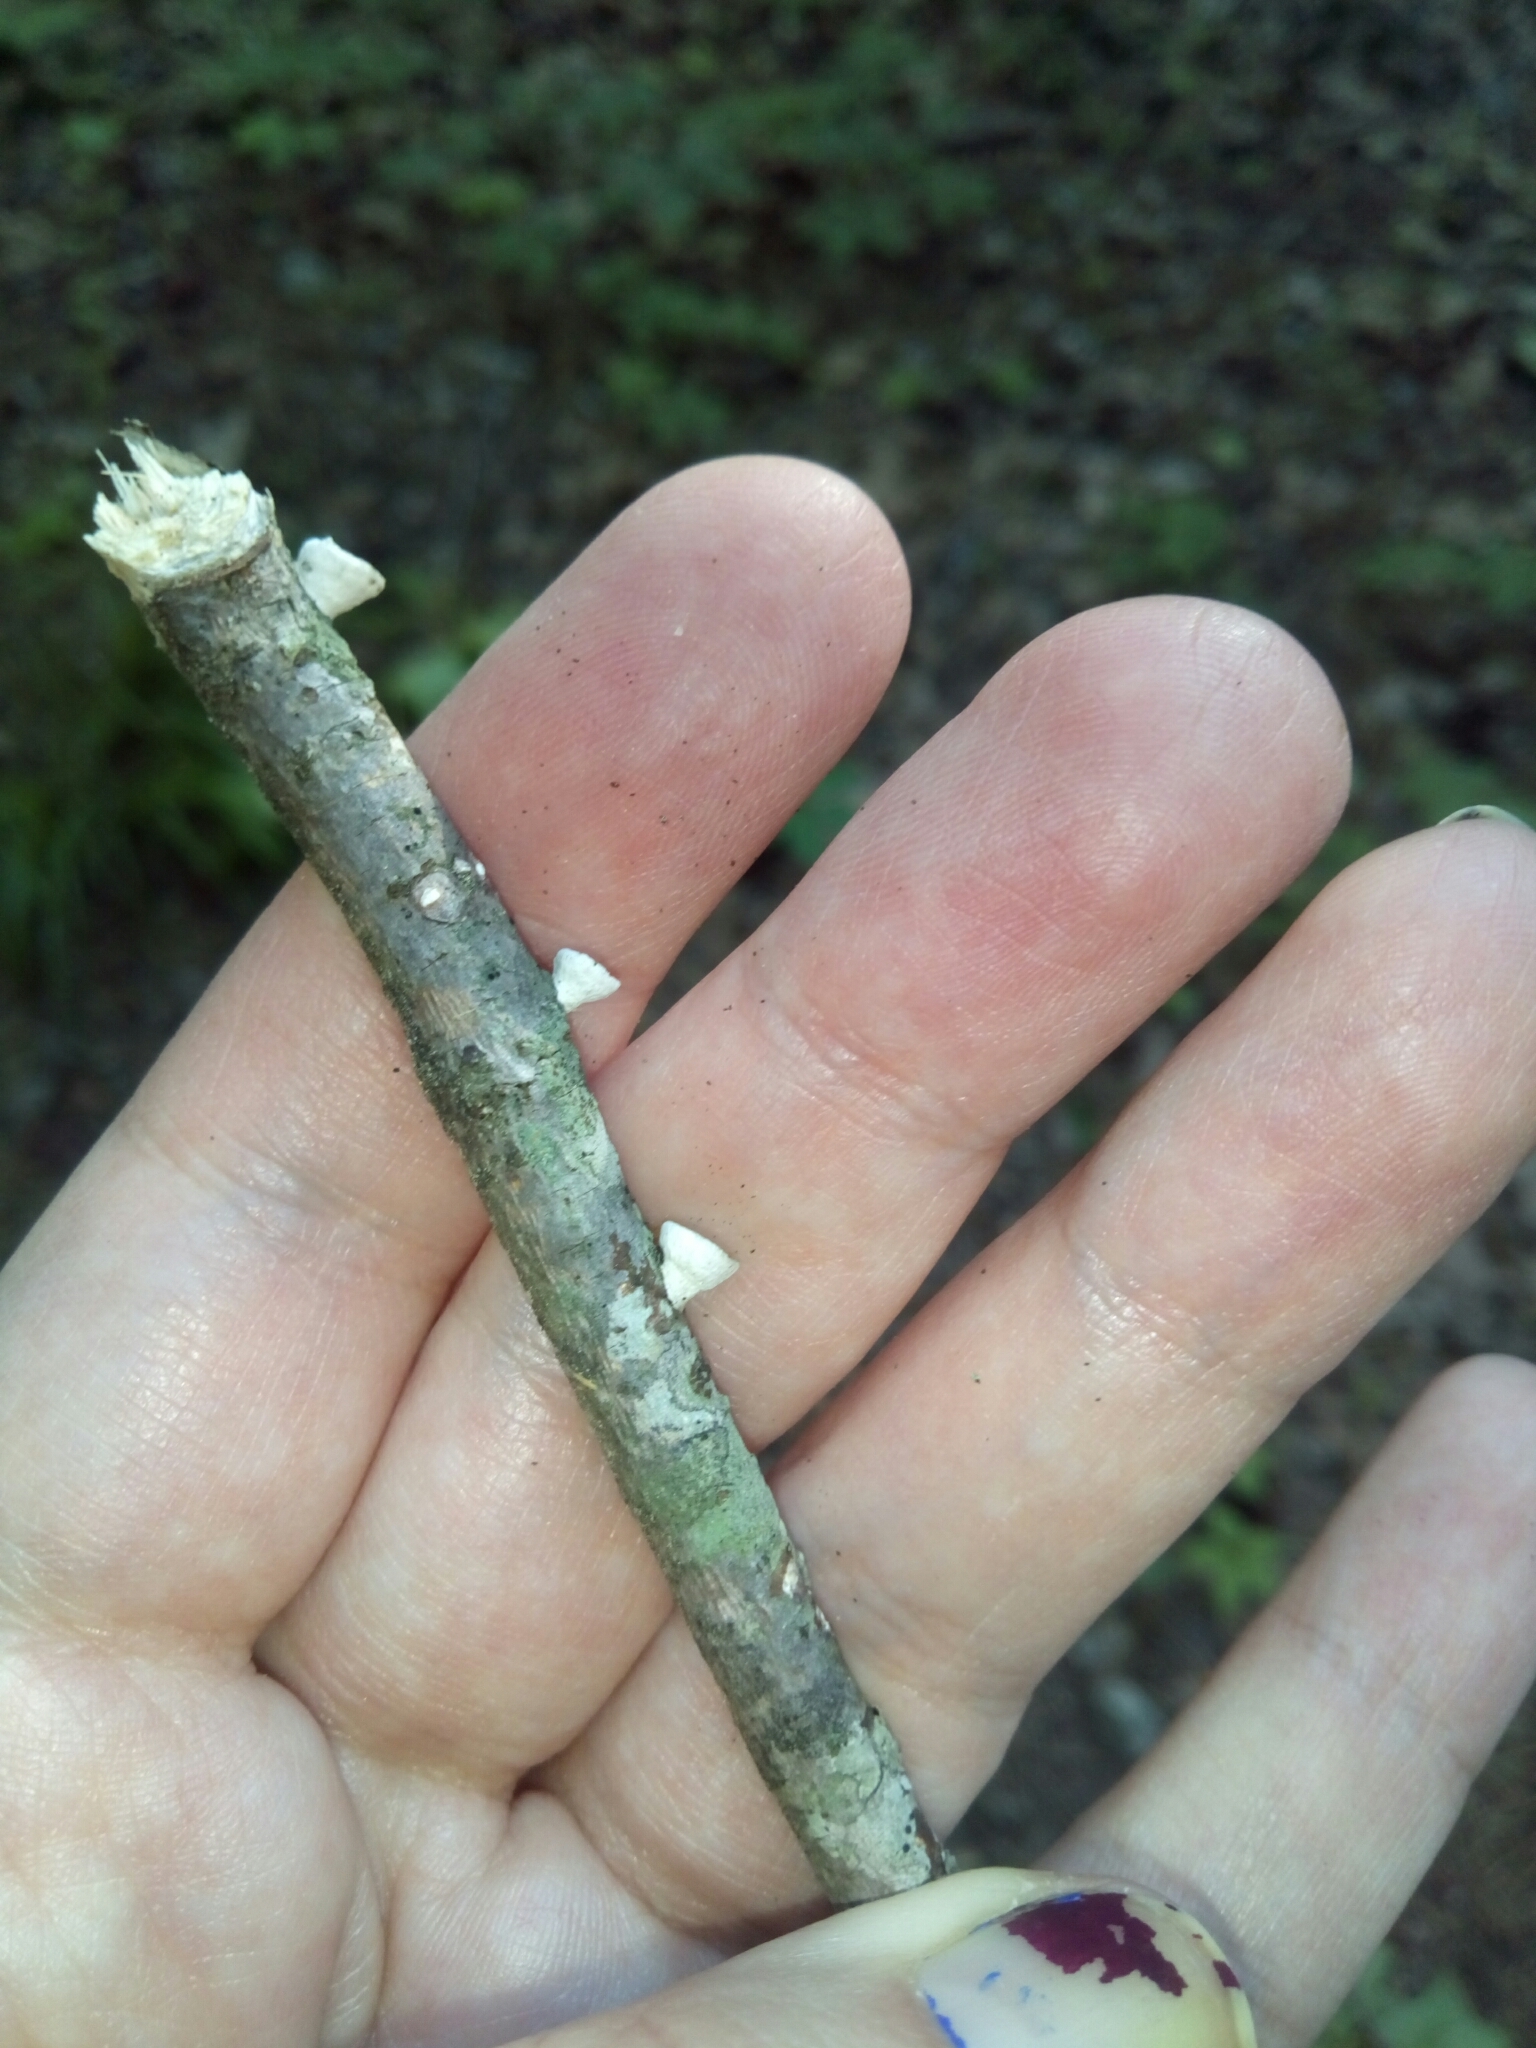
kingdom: Fungi
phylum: Basidiomycota
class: Agaricomycetes
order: Polyporales
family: Polyporaceae
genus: Poronidulus
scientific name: Poronidulus conchifer
